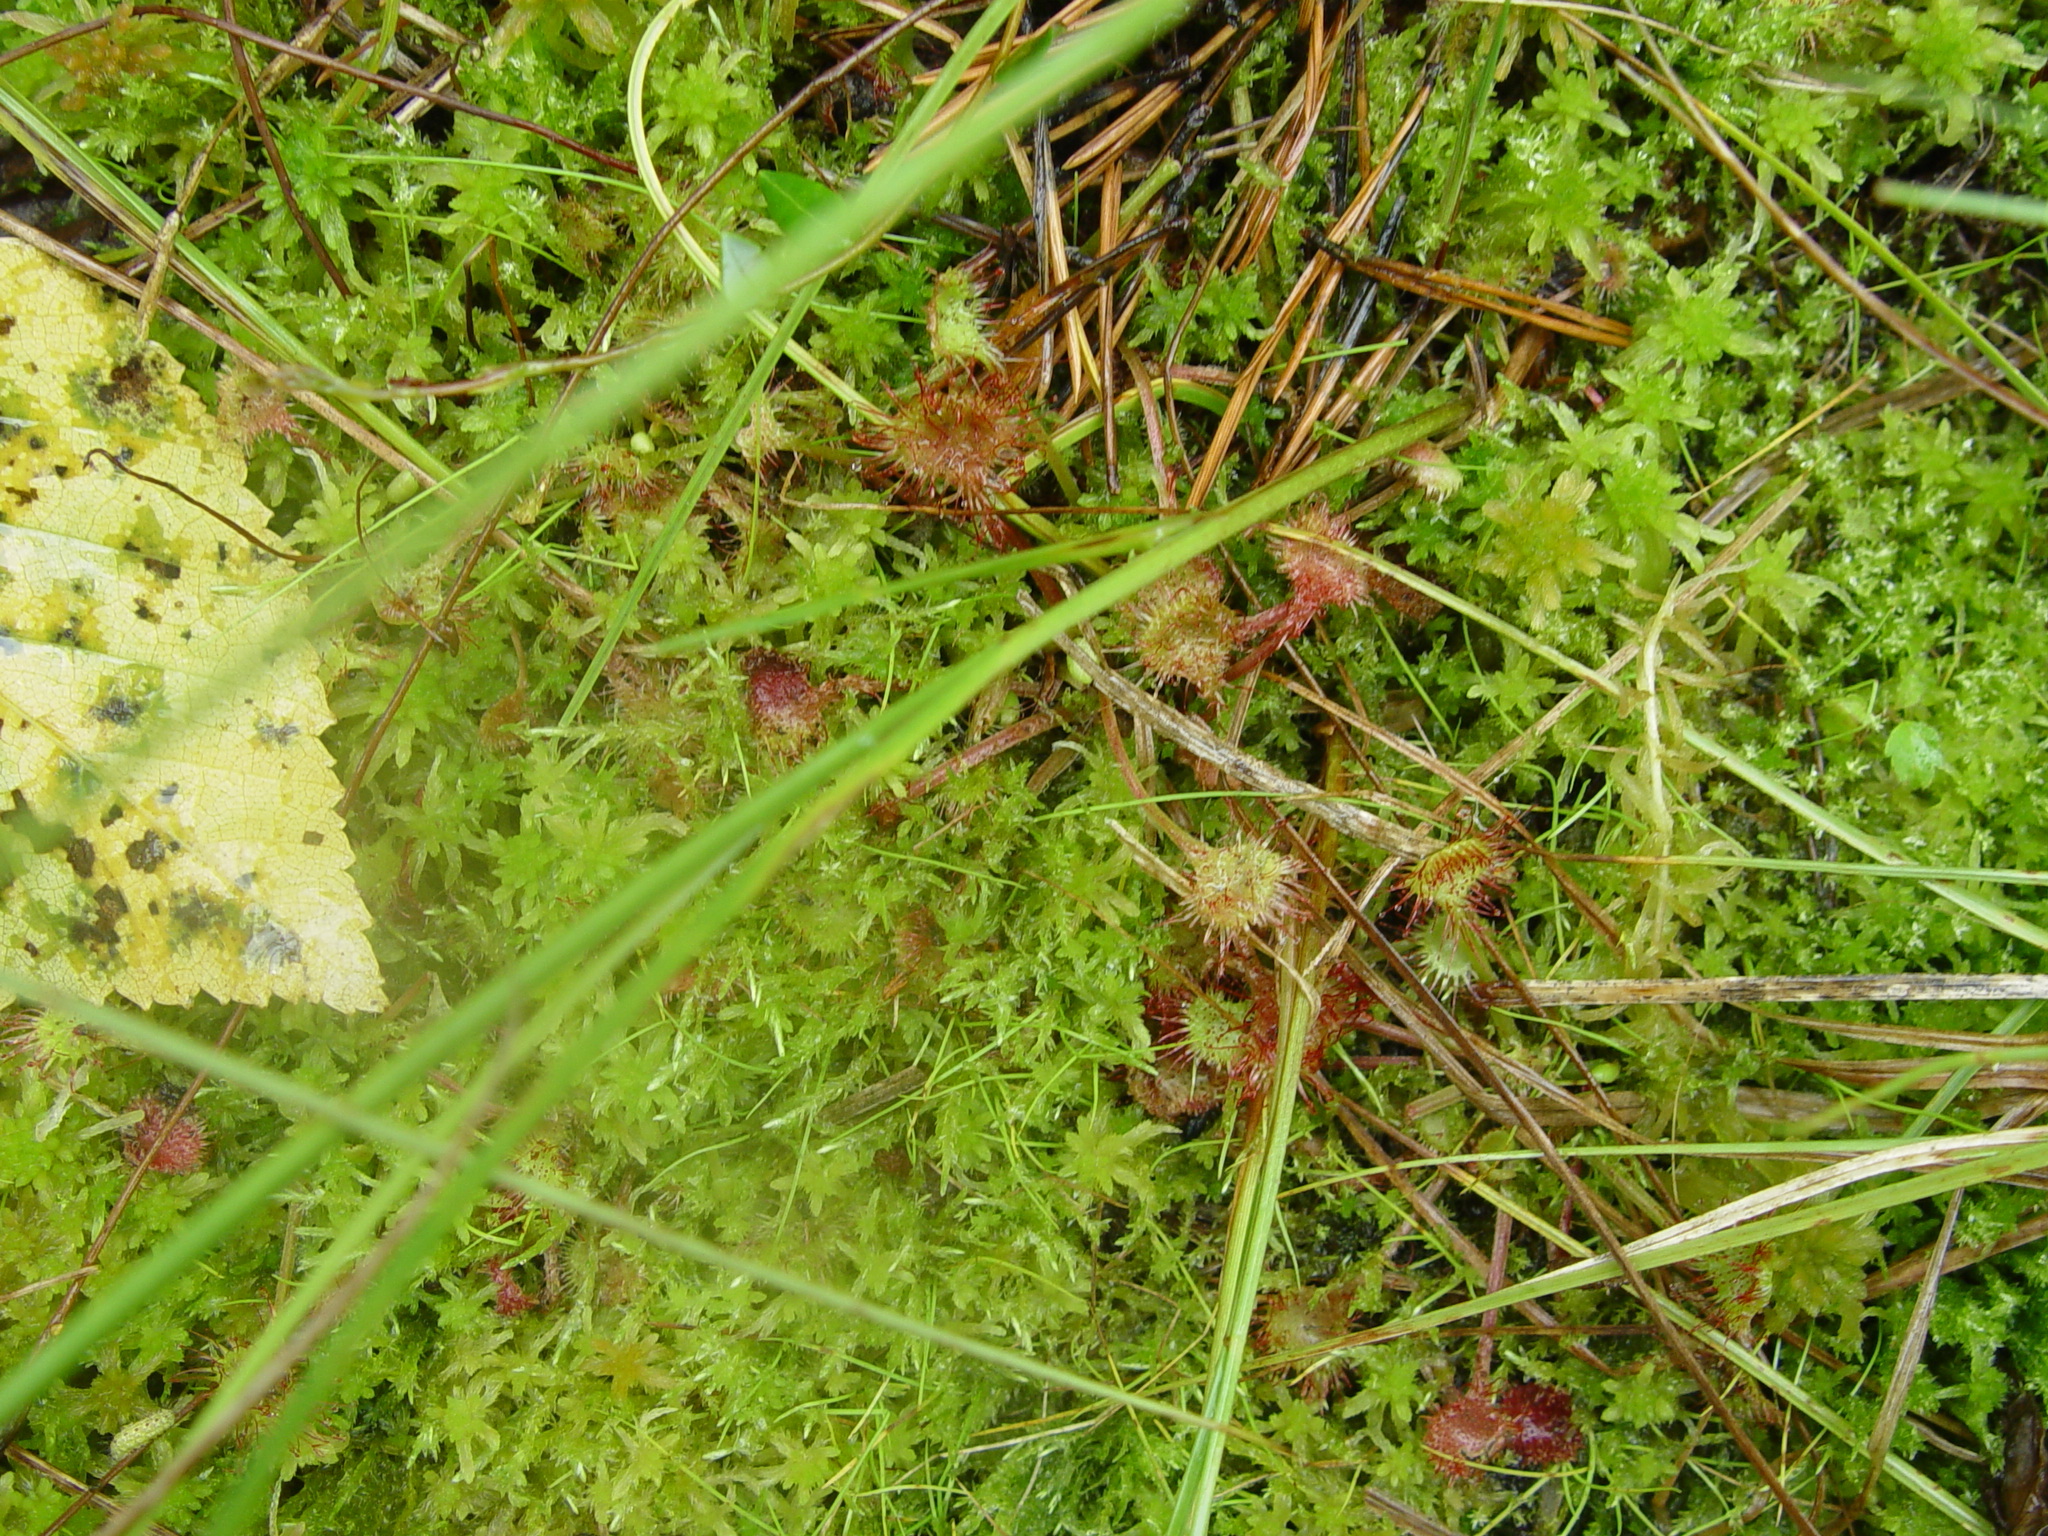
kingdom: Plantae
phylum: Tracheophyta
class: Magnoliopsida
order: Caryophyllales
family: Droseraceae
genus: Drosera
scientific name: Drosera rotundifolia
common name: Round-leaved sundew
